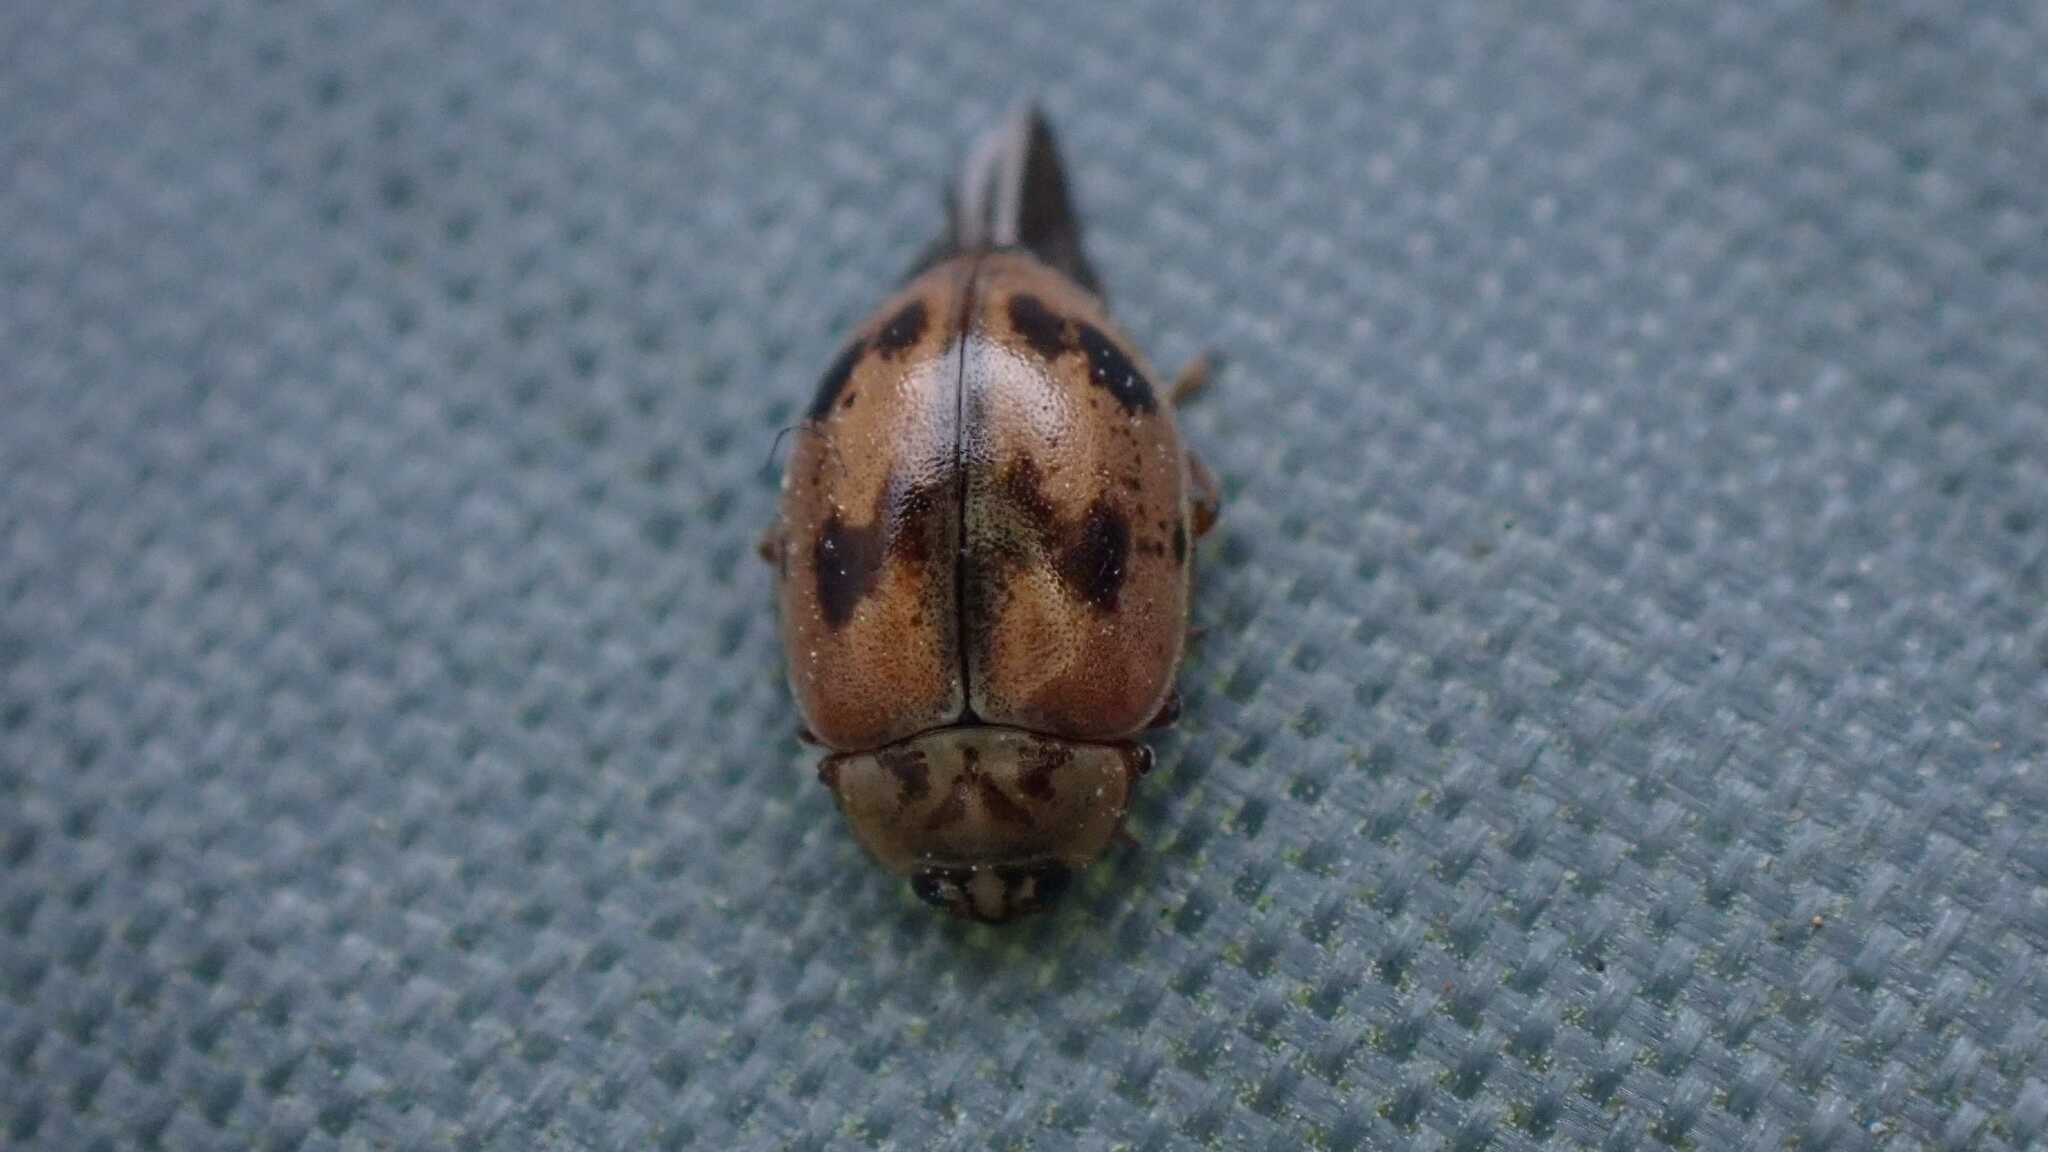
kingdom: Animalia
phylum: Arthropoda
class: Insecta
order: Coleoptera
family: Coccinellidae
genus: Aphidecta
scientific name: Aphidecta obliterata
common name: Larch ladybird
